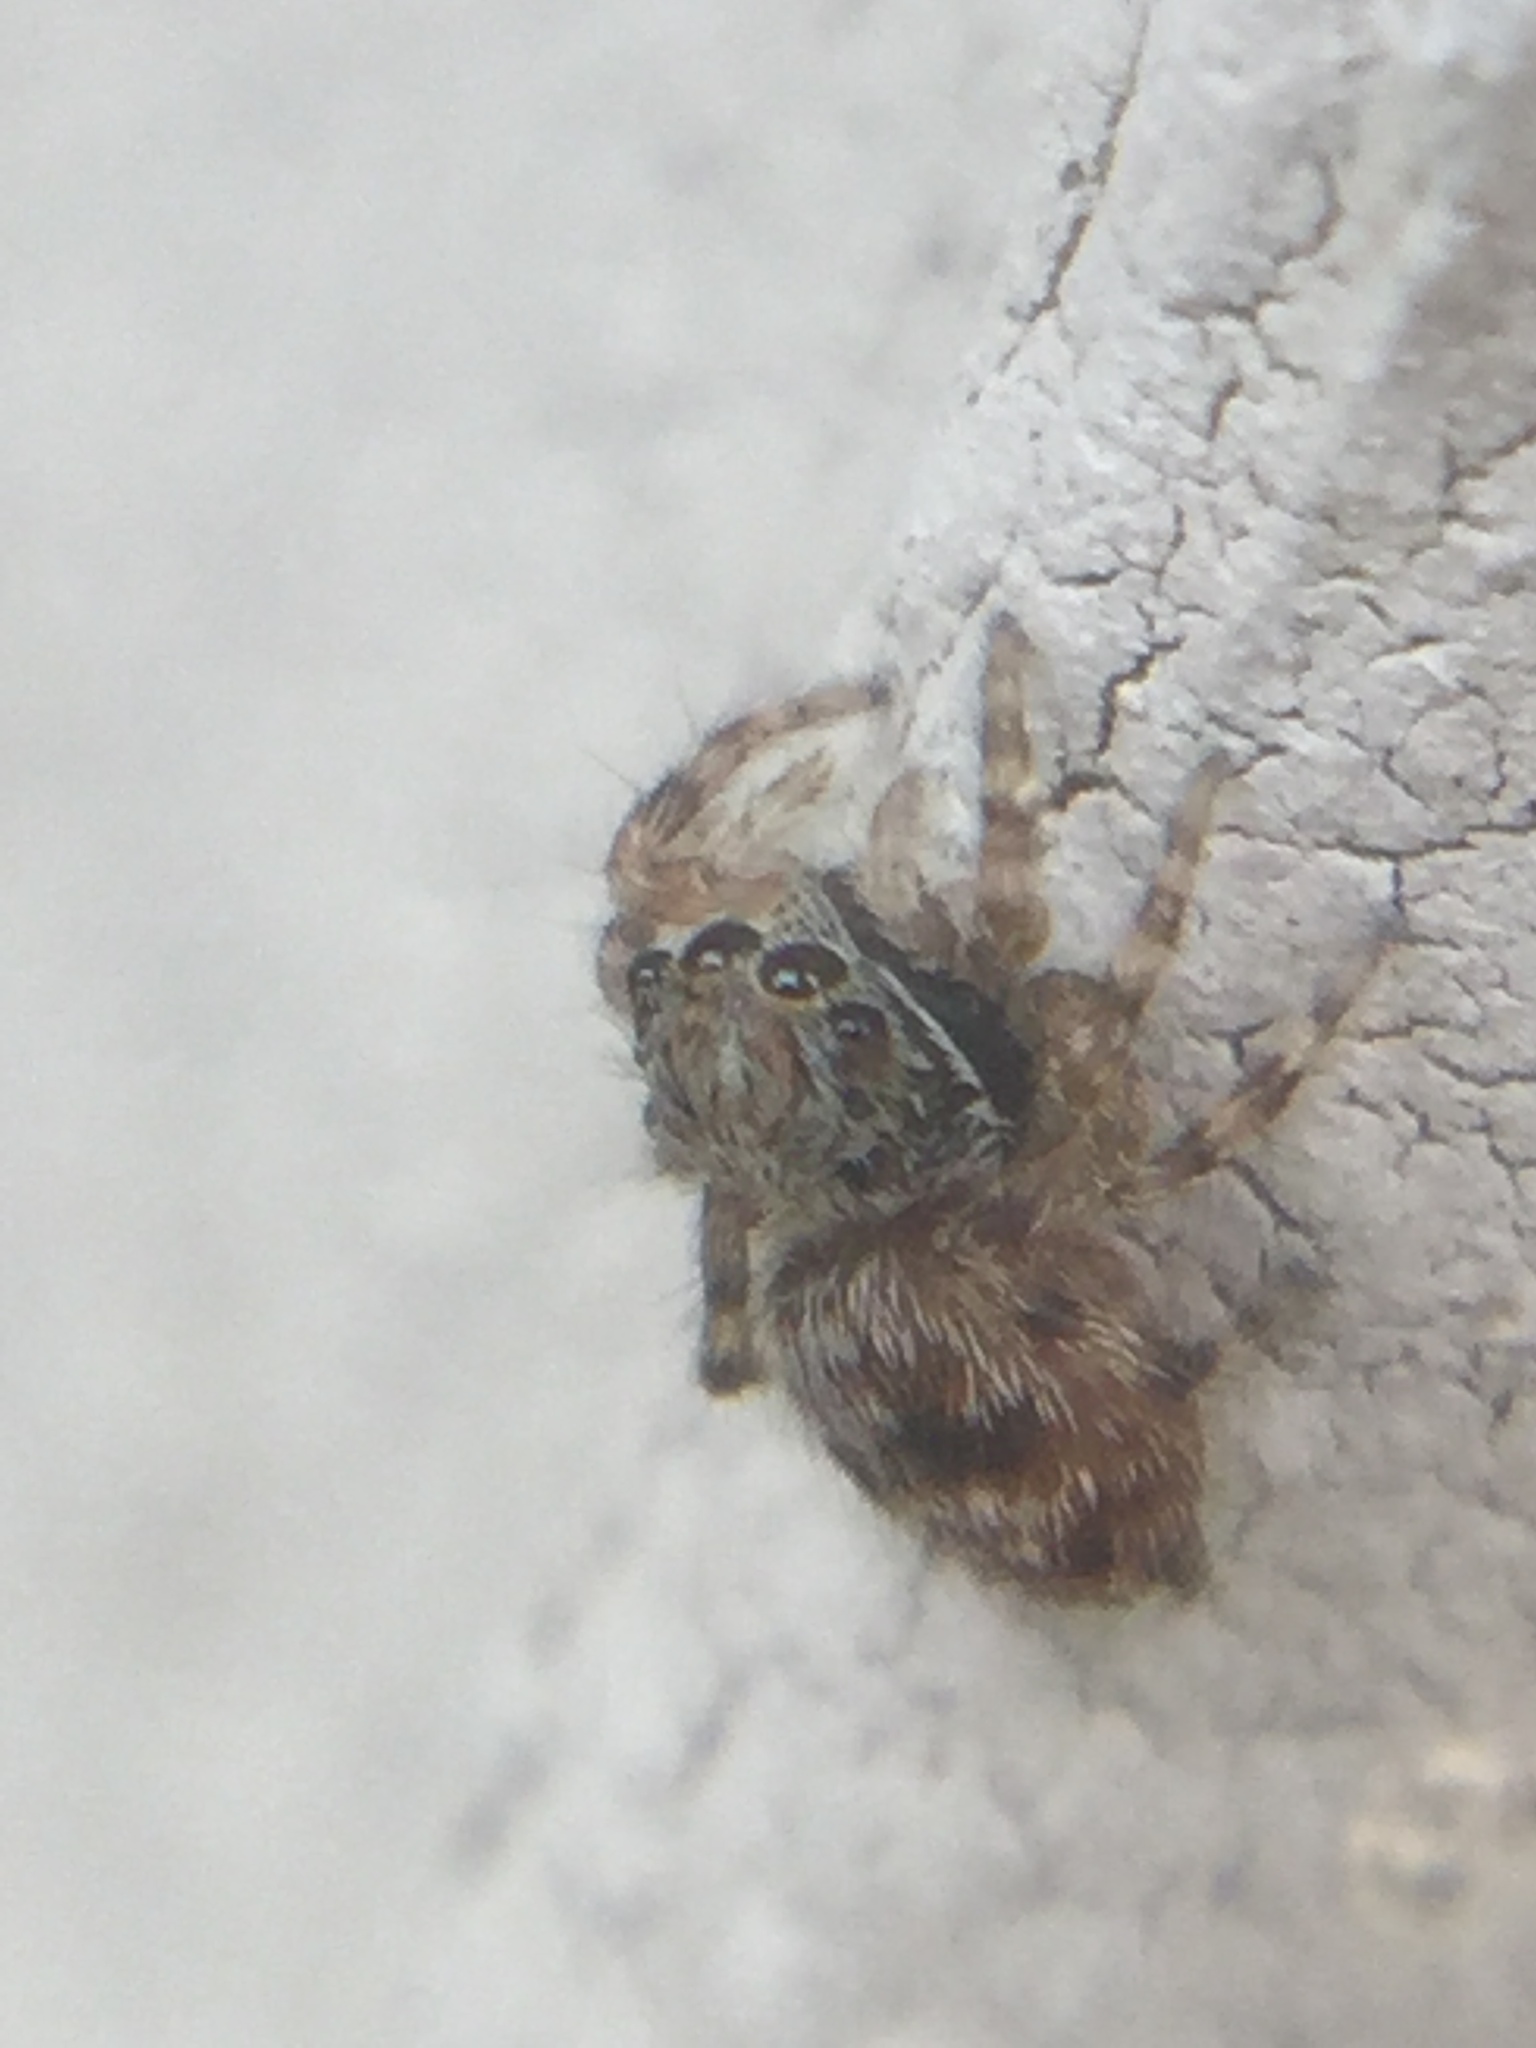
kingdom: Animalia
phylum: Arthropoda
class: Arachnida
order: Araneae
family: Salticidae
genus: Attulus
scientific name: Attulus fasciger
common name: Asiatic wall jumping spider
